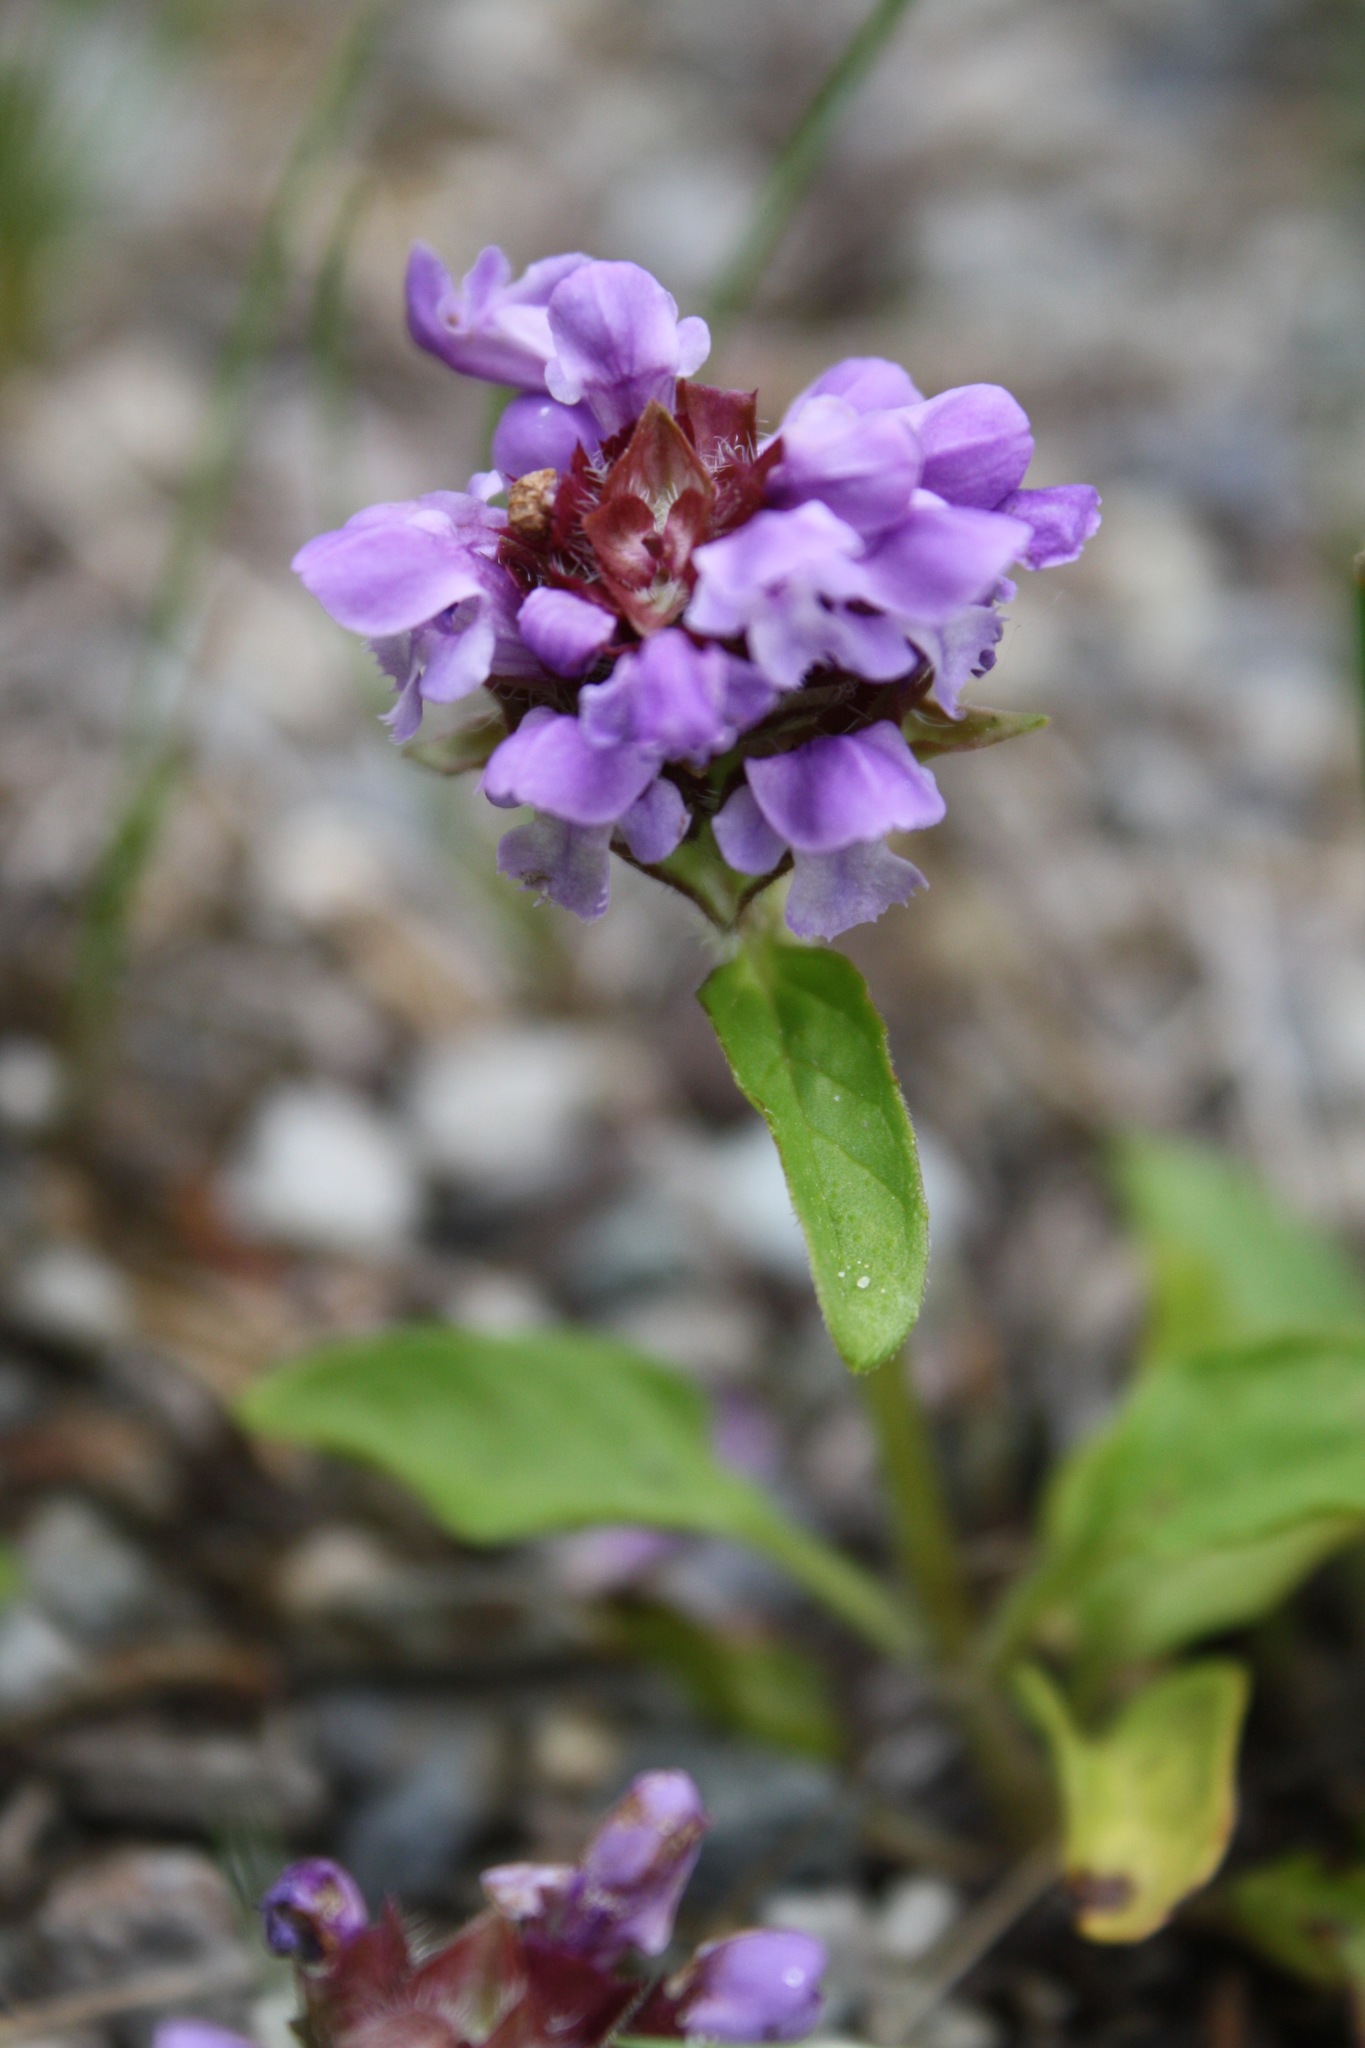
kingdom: Plantae
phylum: Tracheophyta
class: Magnoliopsida
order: Lamiales
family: Lamiaceae
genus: Prunella
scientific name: Prunella vulgaris
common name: Heal-all
